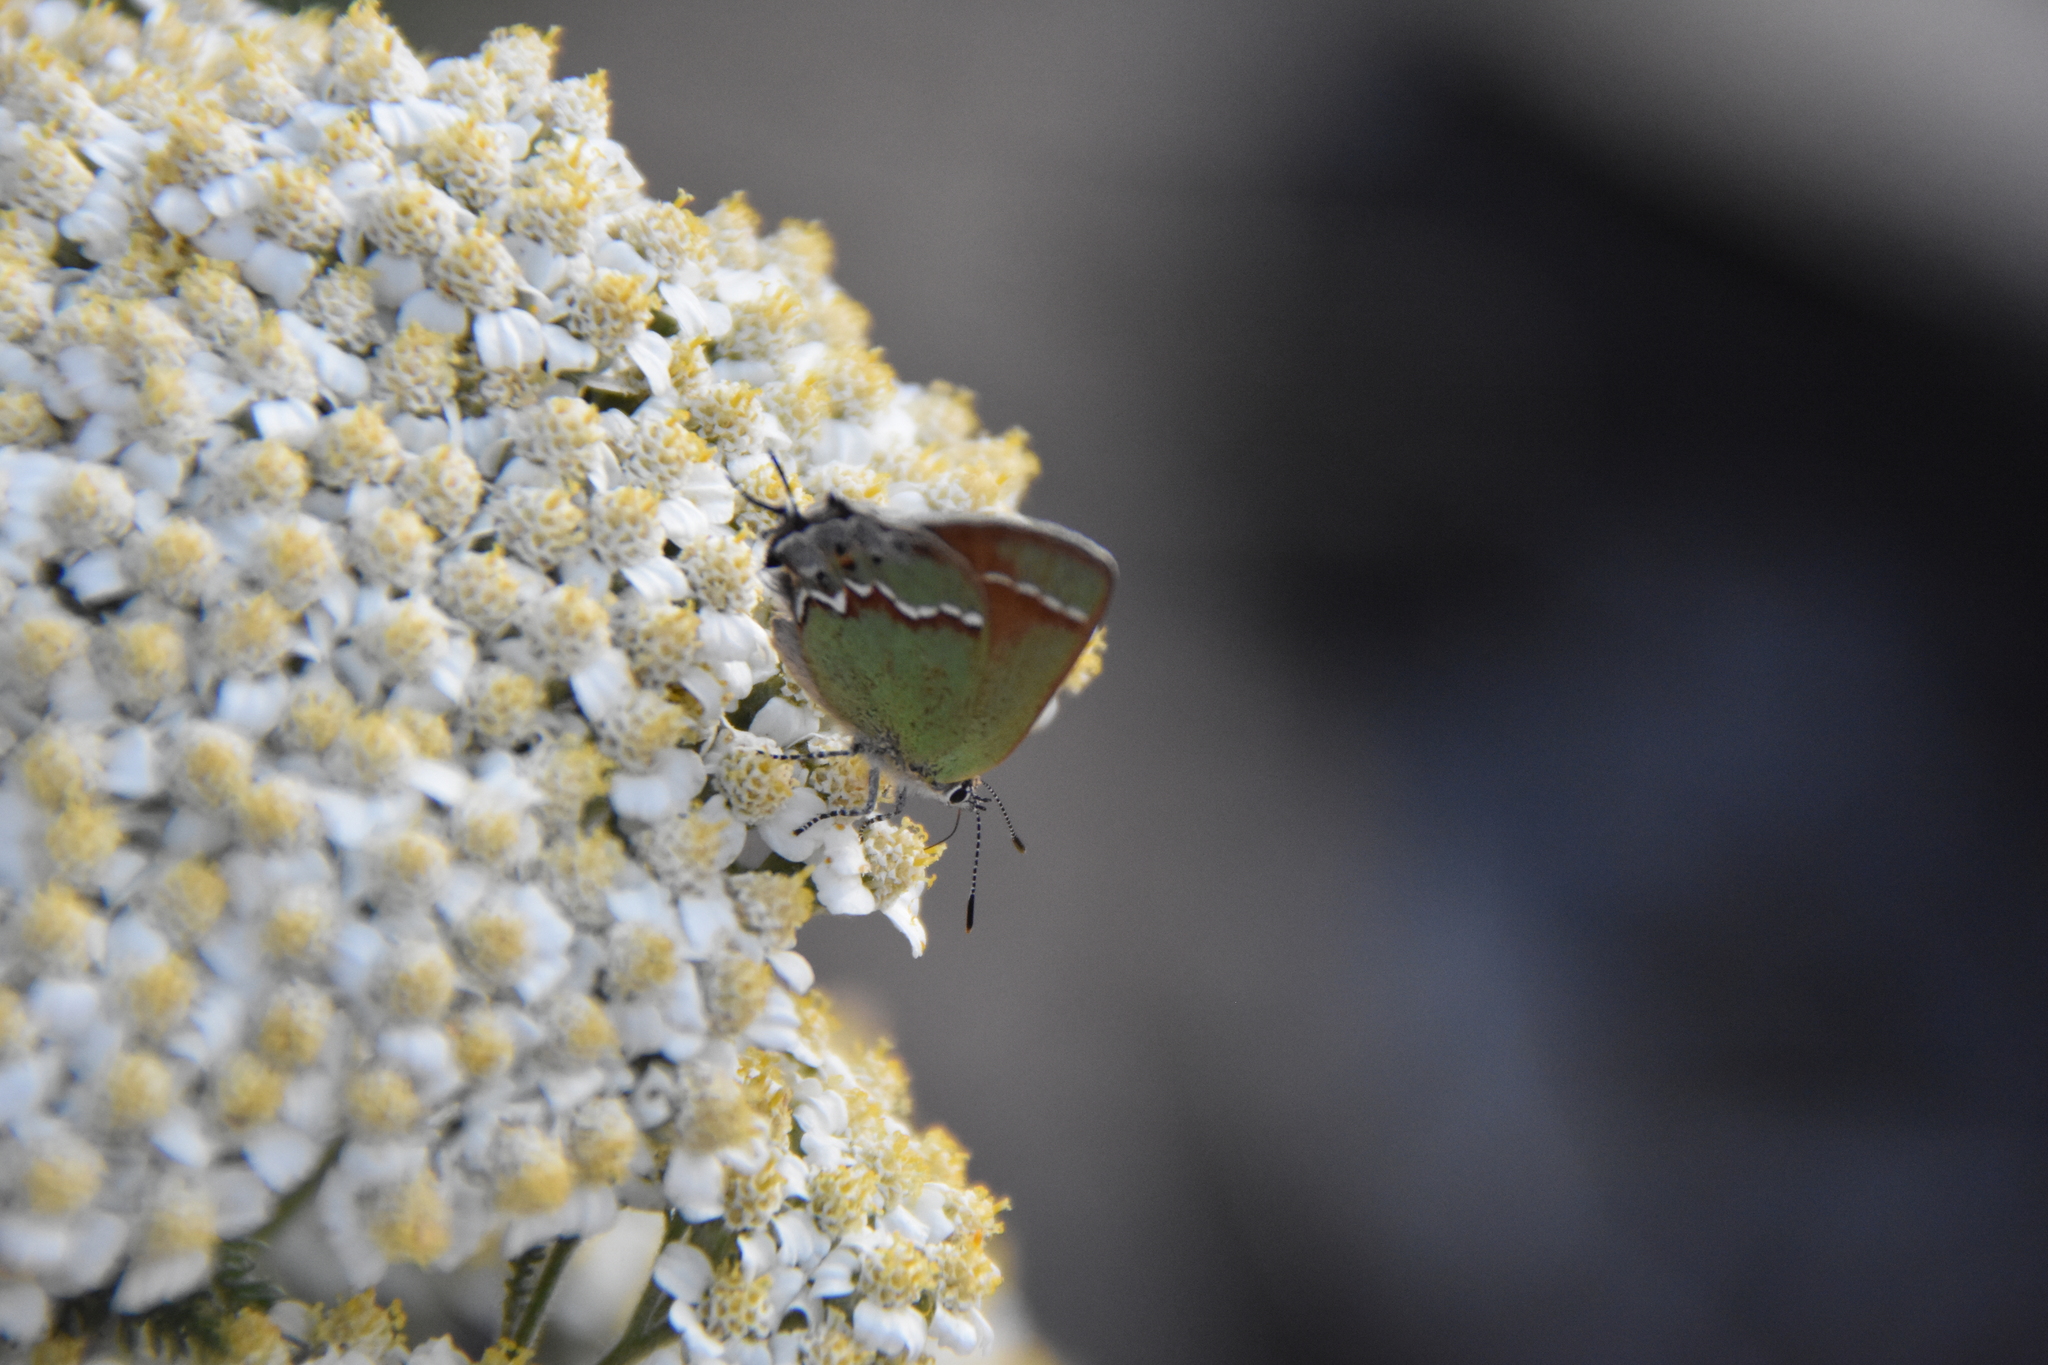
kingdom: Animalia
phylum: Arthropoda
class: Insecta
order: Lepidoptera
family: Lycaenidae
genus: Mitoura
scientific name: Mitoura gryneus
